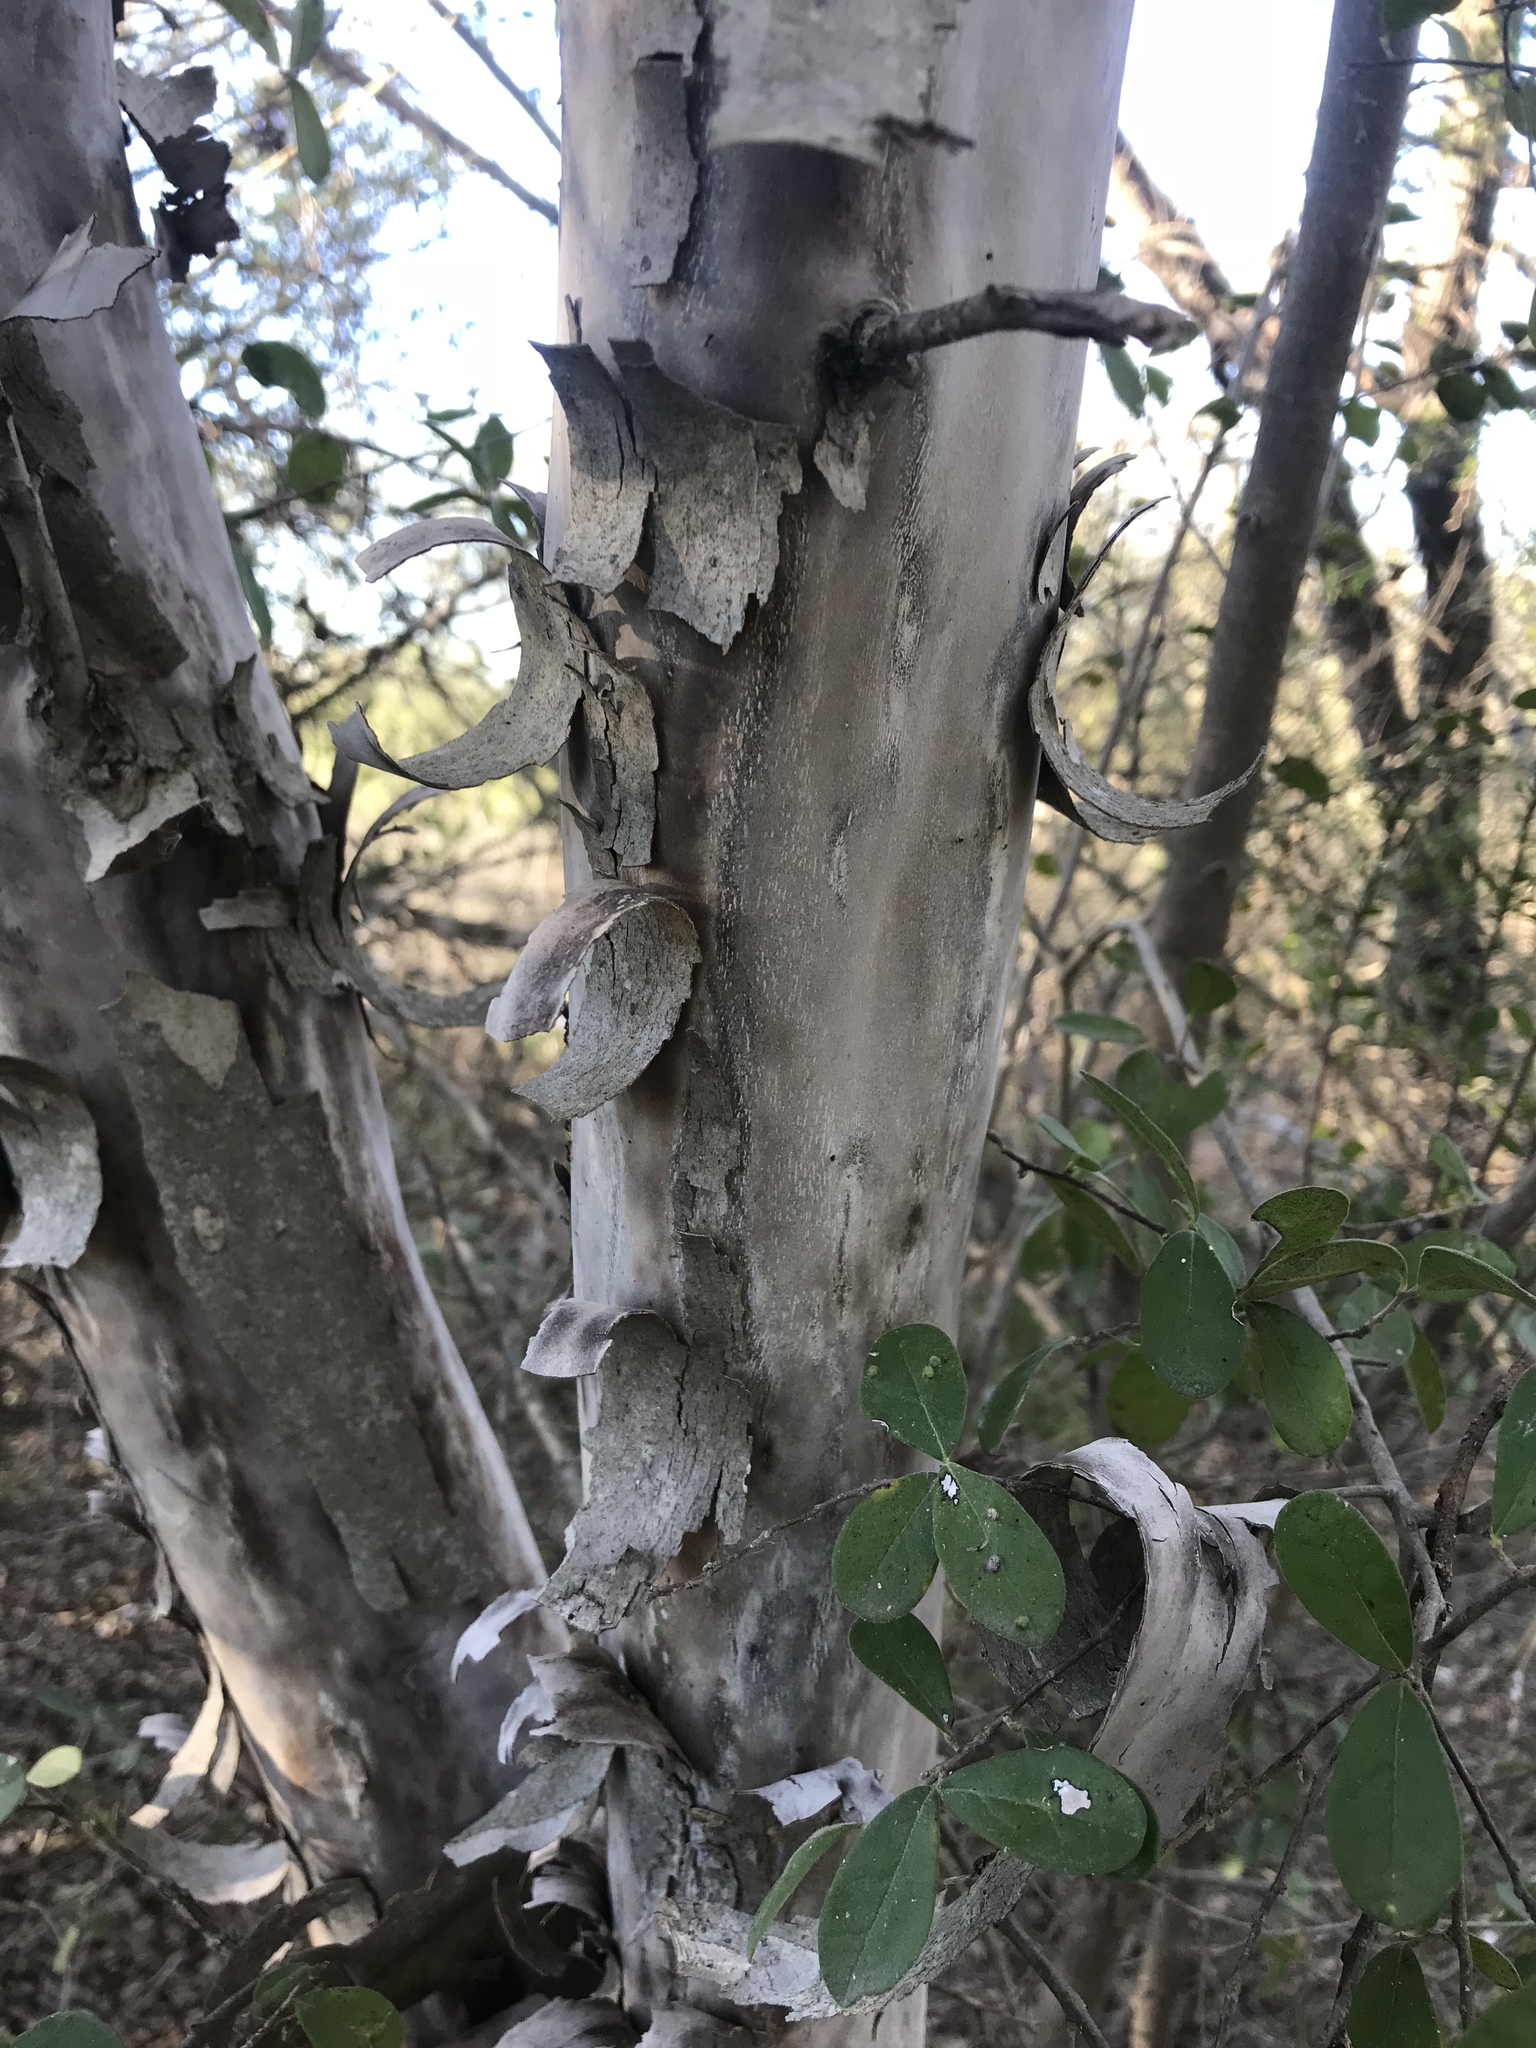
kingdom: Plantae
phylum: Tracheophyta
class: Magnoliopsida
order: Ericales
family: Ebenaceae
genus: Diospyros
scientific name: Diospyros texana
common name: Texas persimmon
